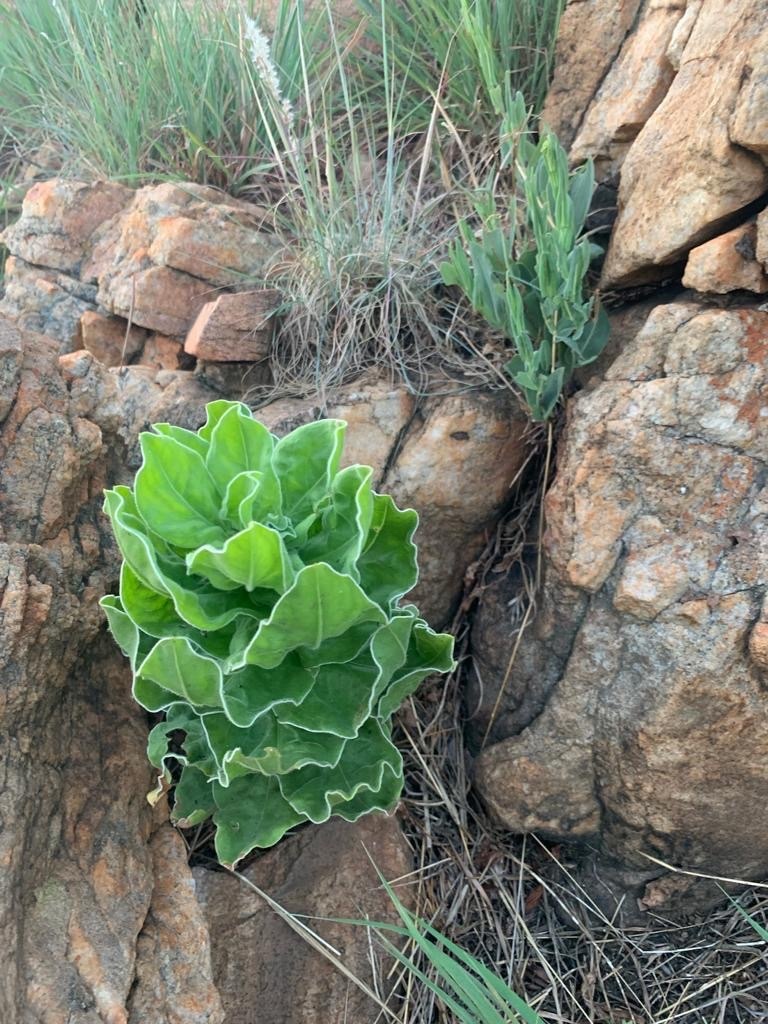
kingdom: Plantae
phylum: Tracheophyta
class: Magnoliopsida
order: Asterales
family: Asteraceae
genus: Helichrysum
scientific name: Helichrysum setosum
